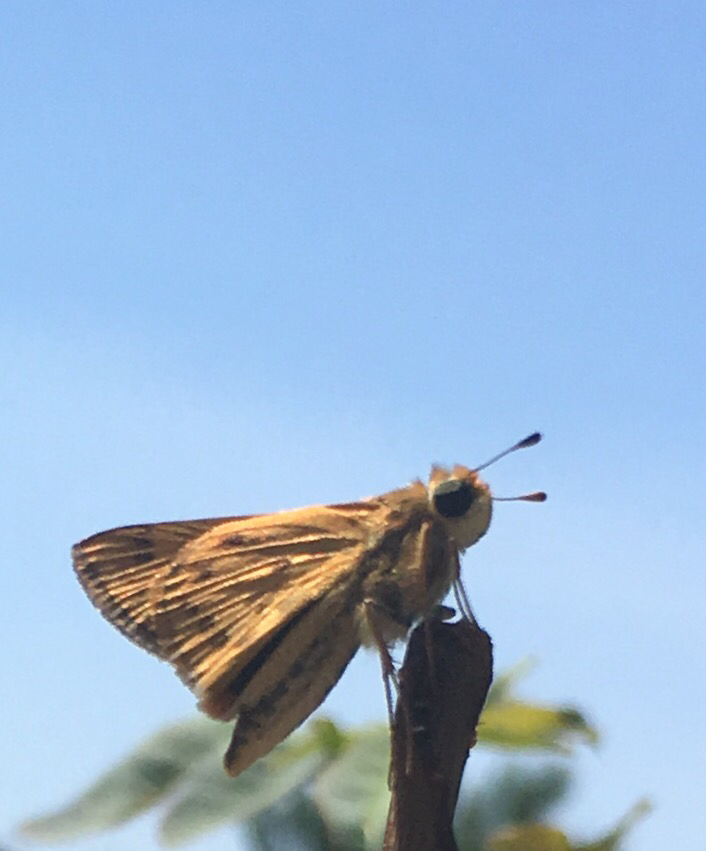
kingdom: Animalia
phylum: Arthropoda
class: Insecta
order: Lepidoptera
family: Hesperiidae
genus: Hylephila
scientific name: Hylephila phyleus
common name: Fiery skipper
